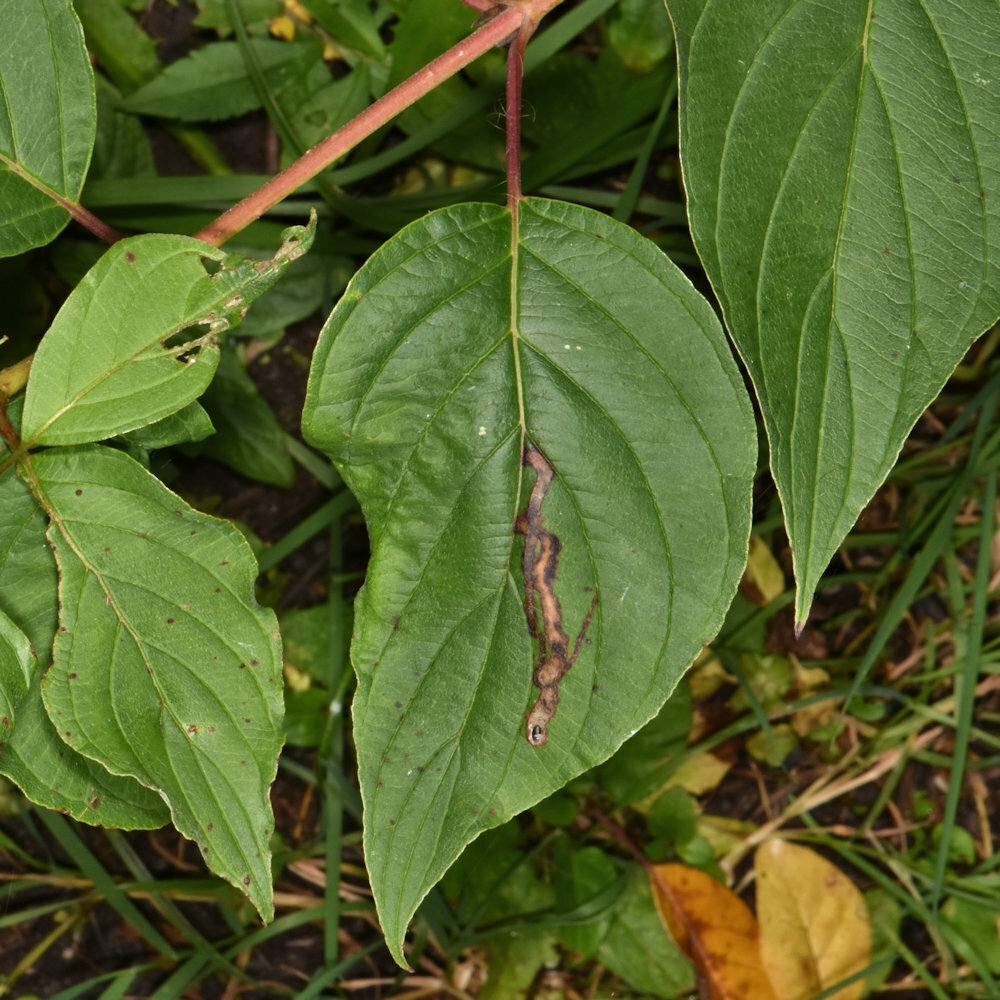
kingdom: Animalia
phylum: Arthropoda
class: Insecta
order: Diptera
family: Agromyzidae
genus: Phytomyza
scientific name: Phytomyza agromyzina
